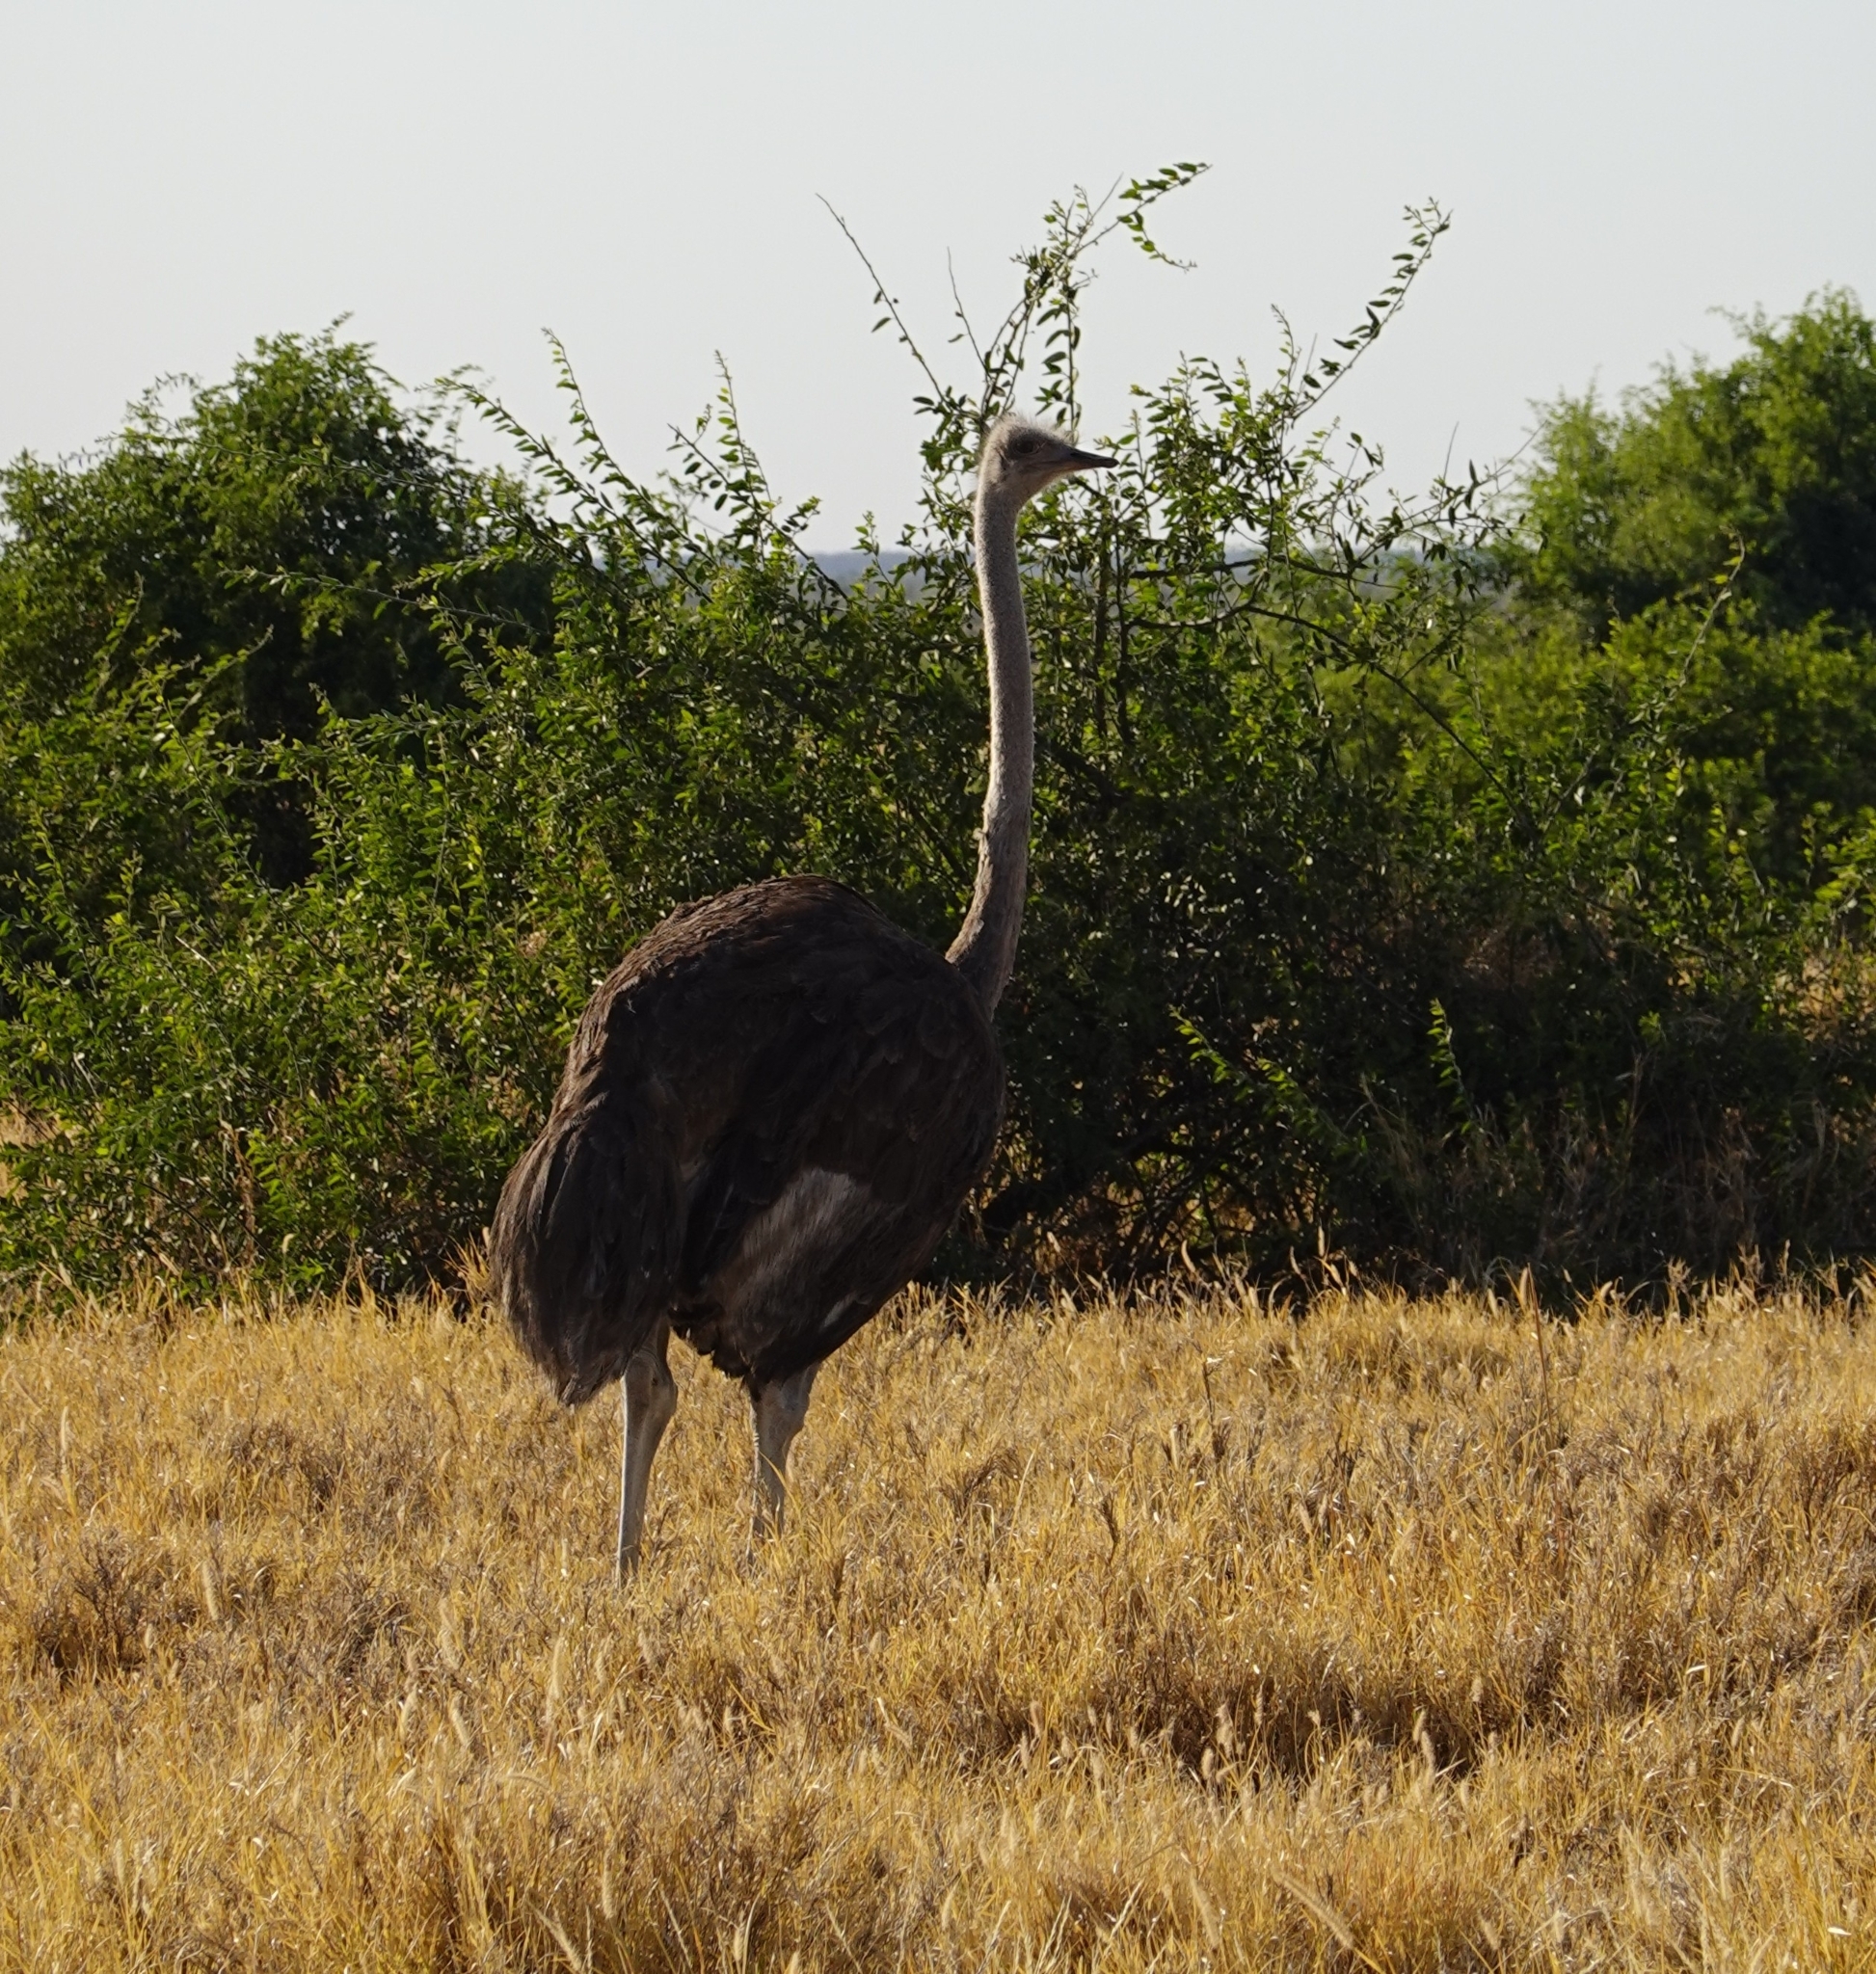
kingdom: Animalia
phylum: Chordata
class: Aves
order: Struthioniformes
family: Struthionidae
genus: Struthio
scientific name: Struthio camelus
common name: Common ostrich
